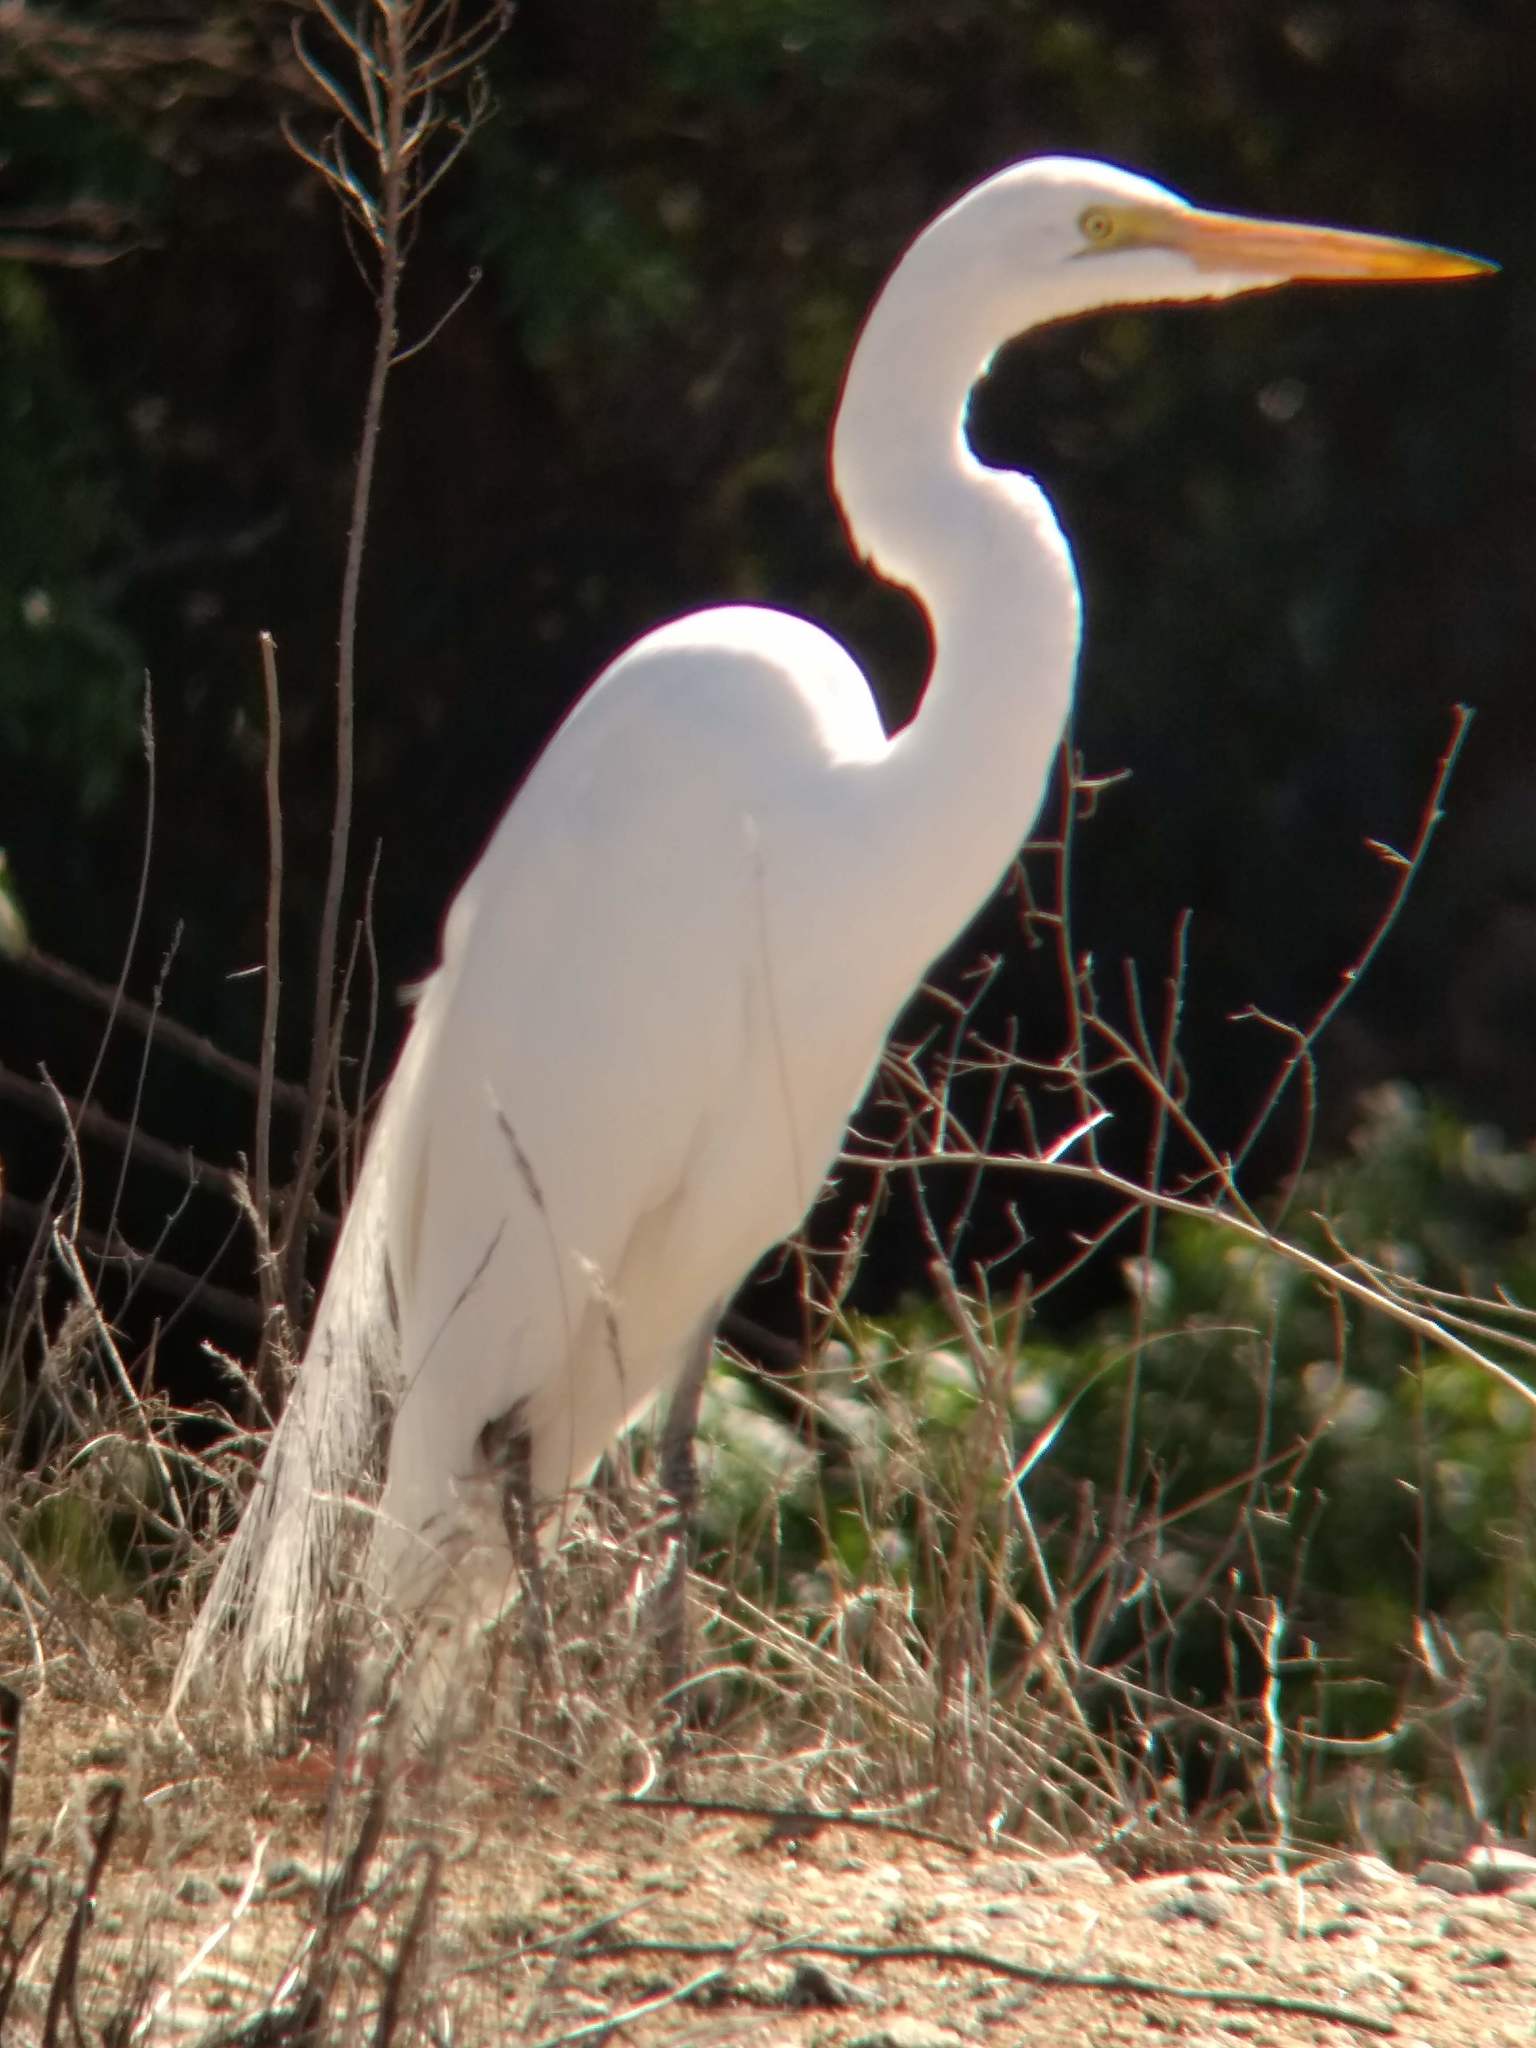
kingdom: Animalia
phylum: Chordata
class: Aves
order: Pelecaniformes
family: Ardeidae
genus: Ardea
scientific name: Ardea alba
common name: Great egret
